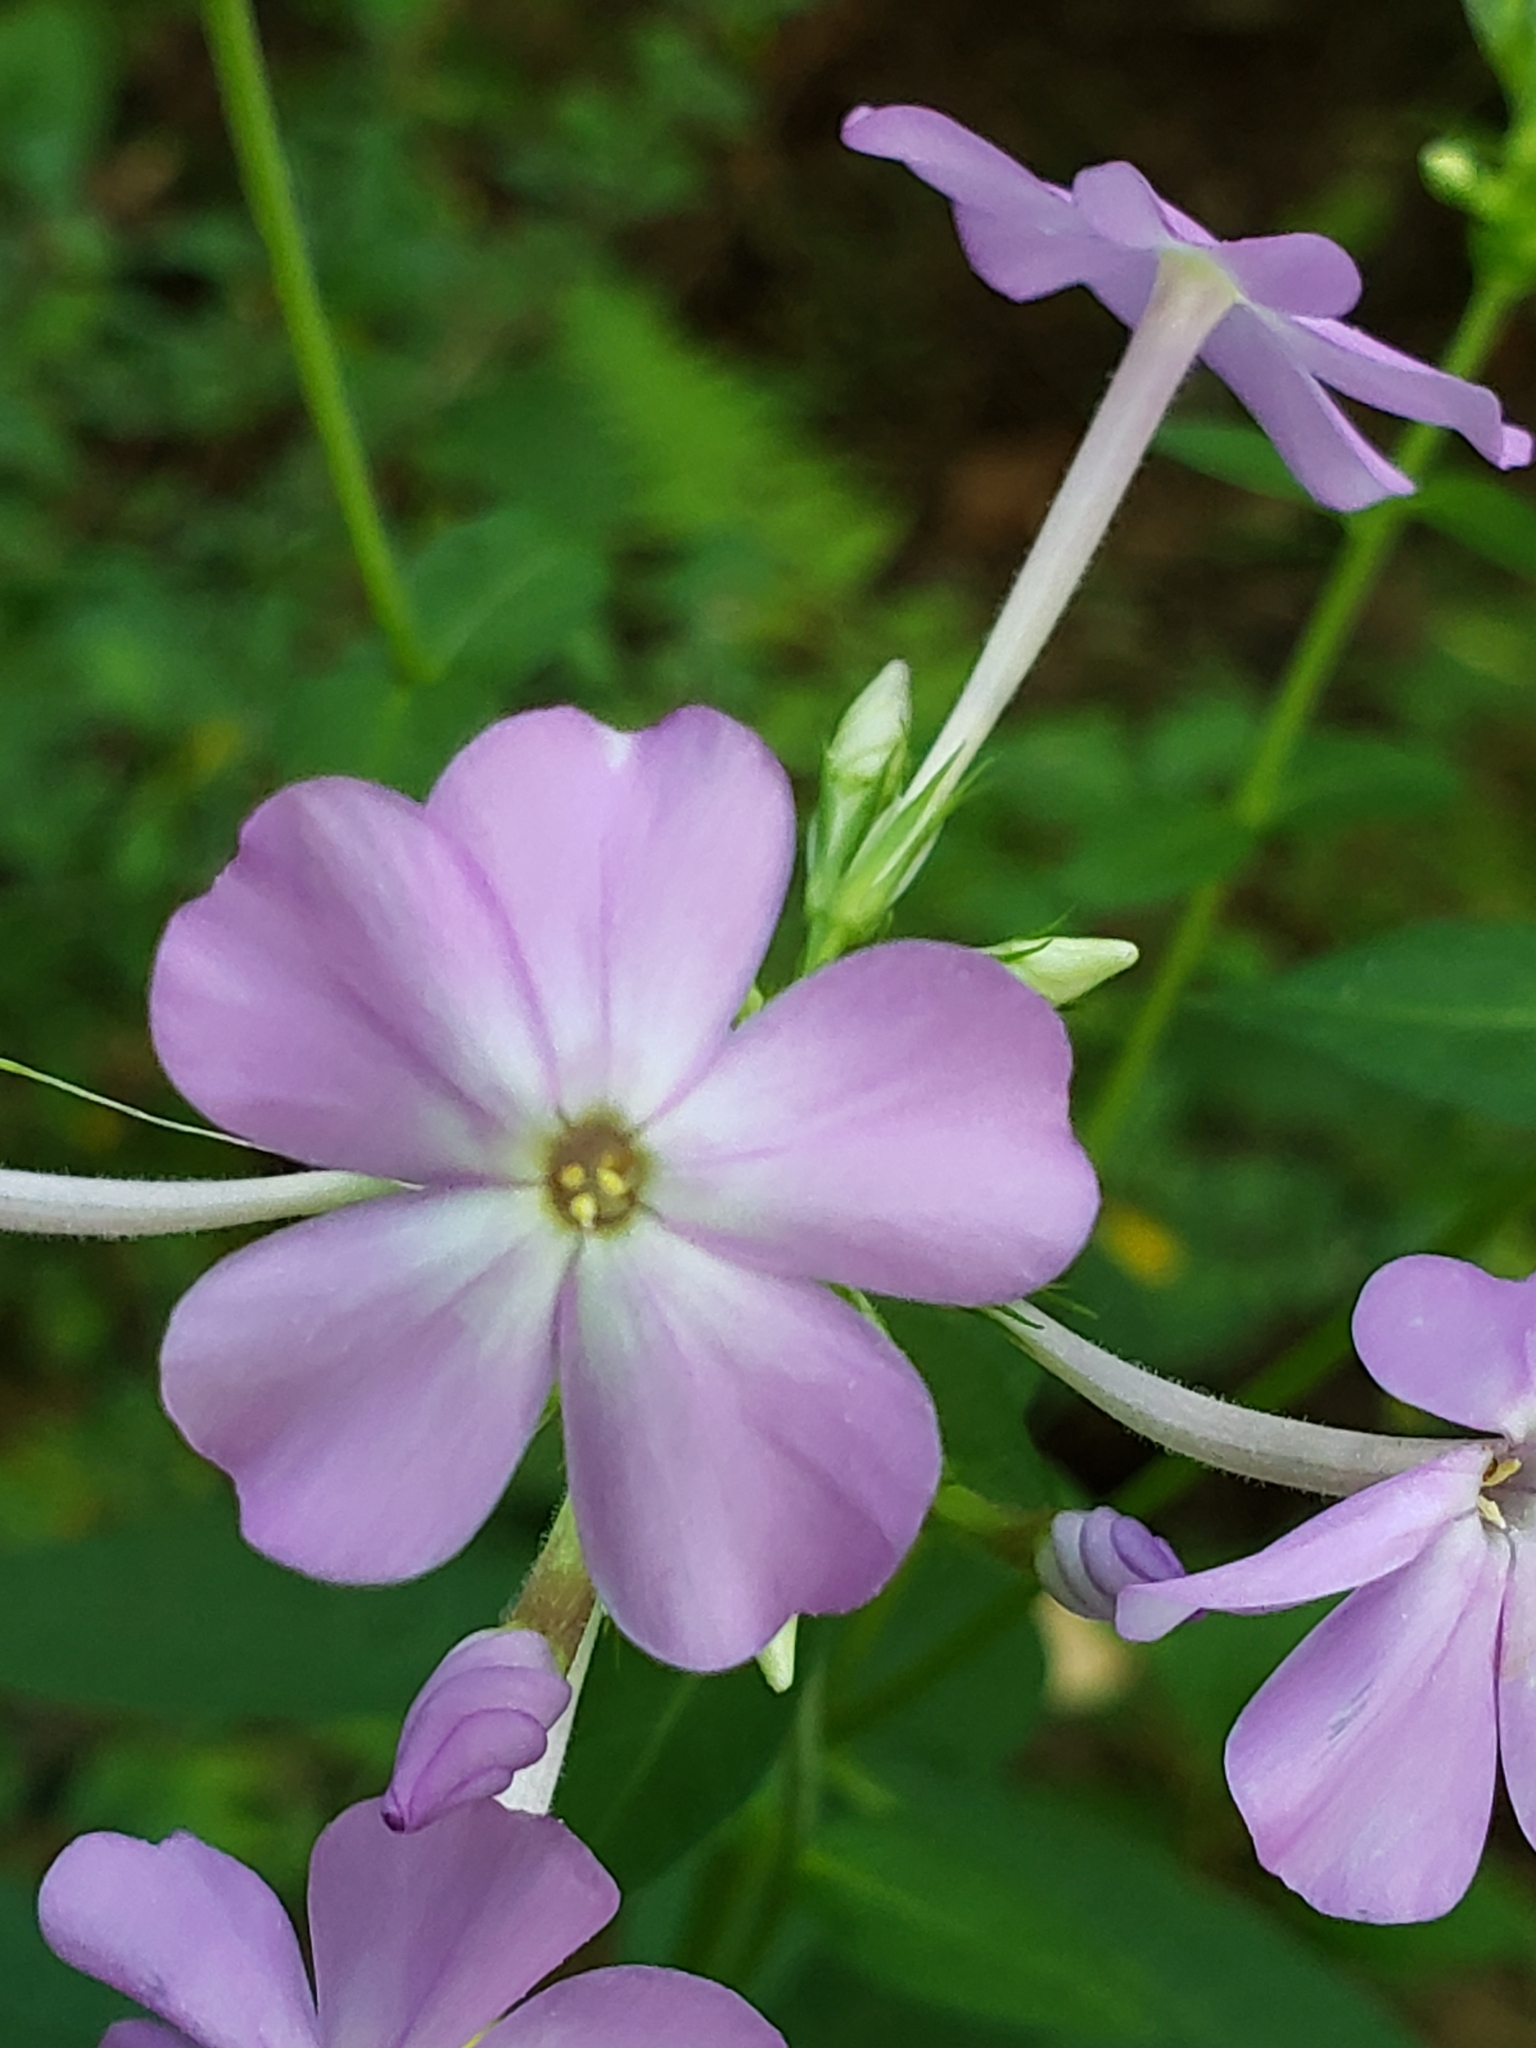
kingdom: Plantae
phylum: Tracheophyta
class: Magnoliopsida
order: Ericales
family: Polemoniaceae
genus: Phlox
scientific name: Phlox paniculata
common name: Fall phlox
